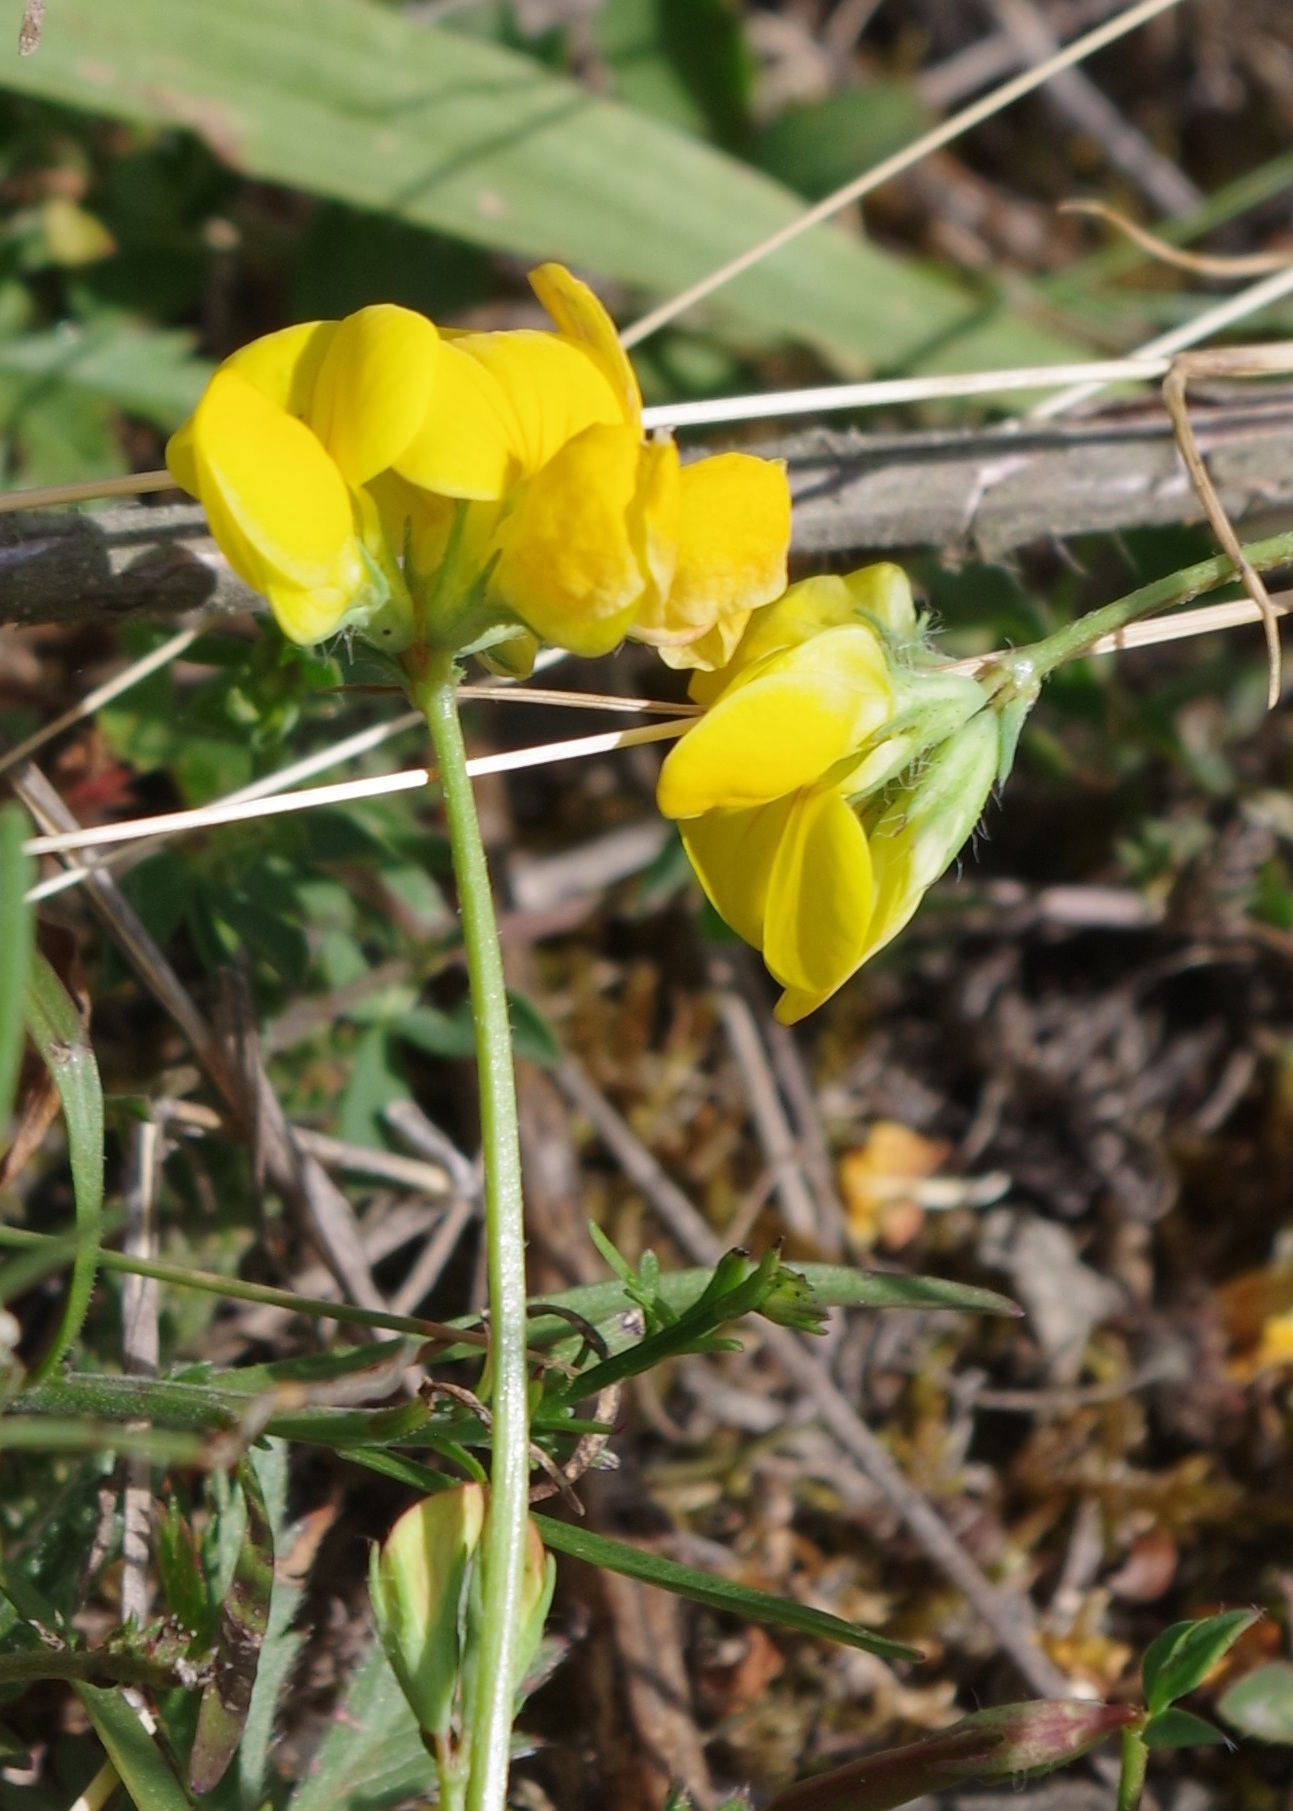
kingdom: Plantae
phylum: Tracheophyta
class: Magnoliopsida
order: Fabales
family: Fabaceae
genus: Lotus
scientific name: Lotus corniculatus
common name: Common bird's-foot-trefoil
